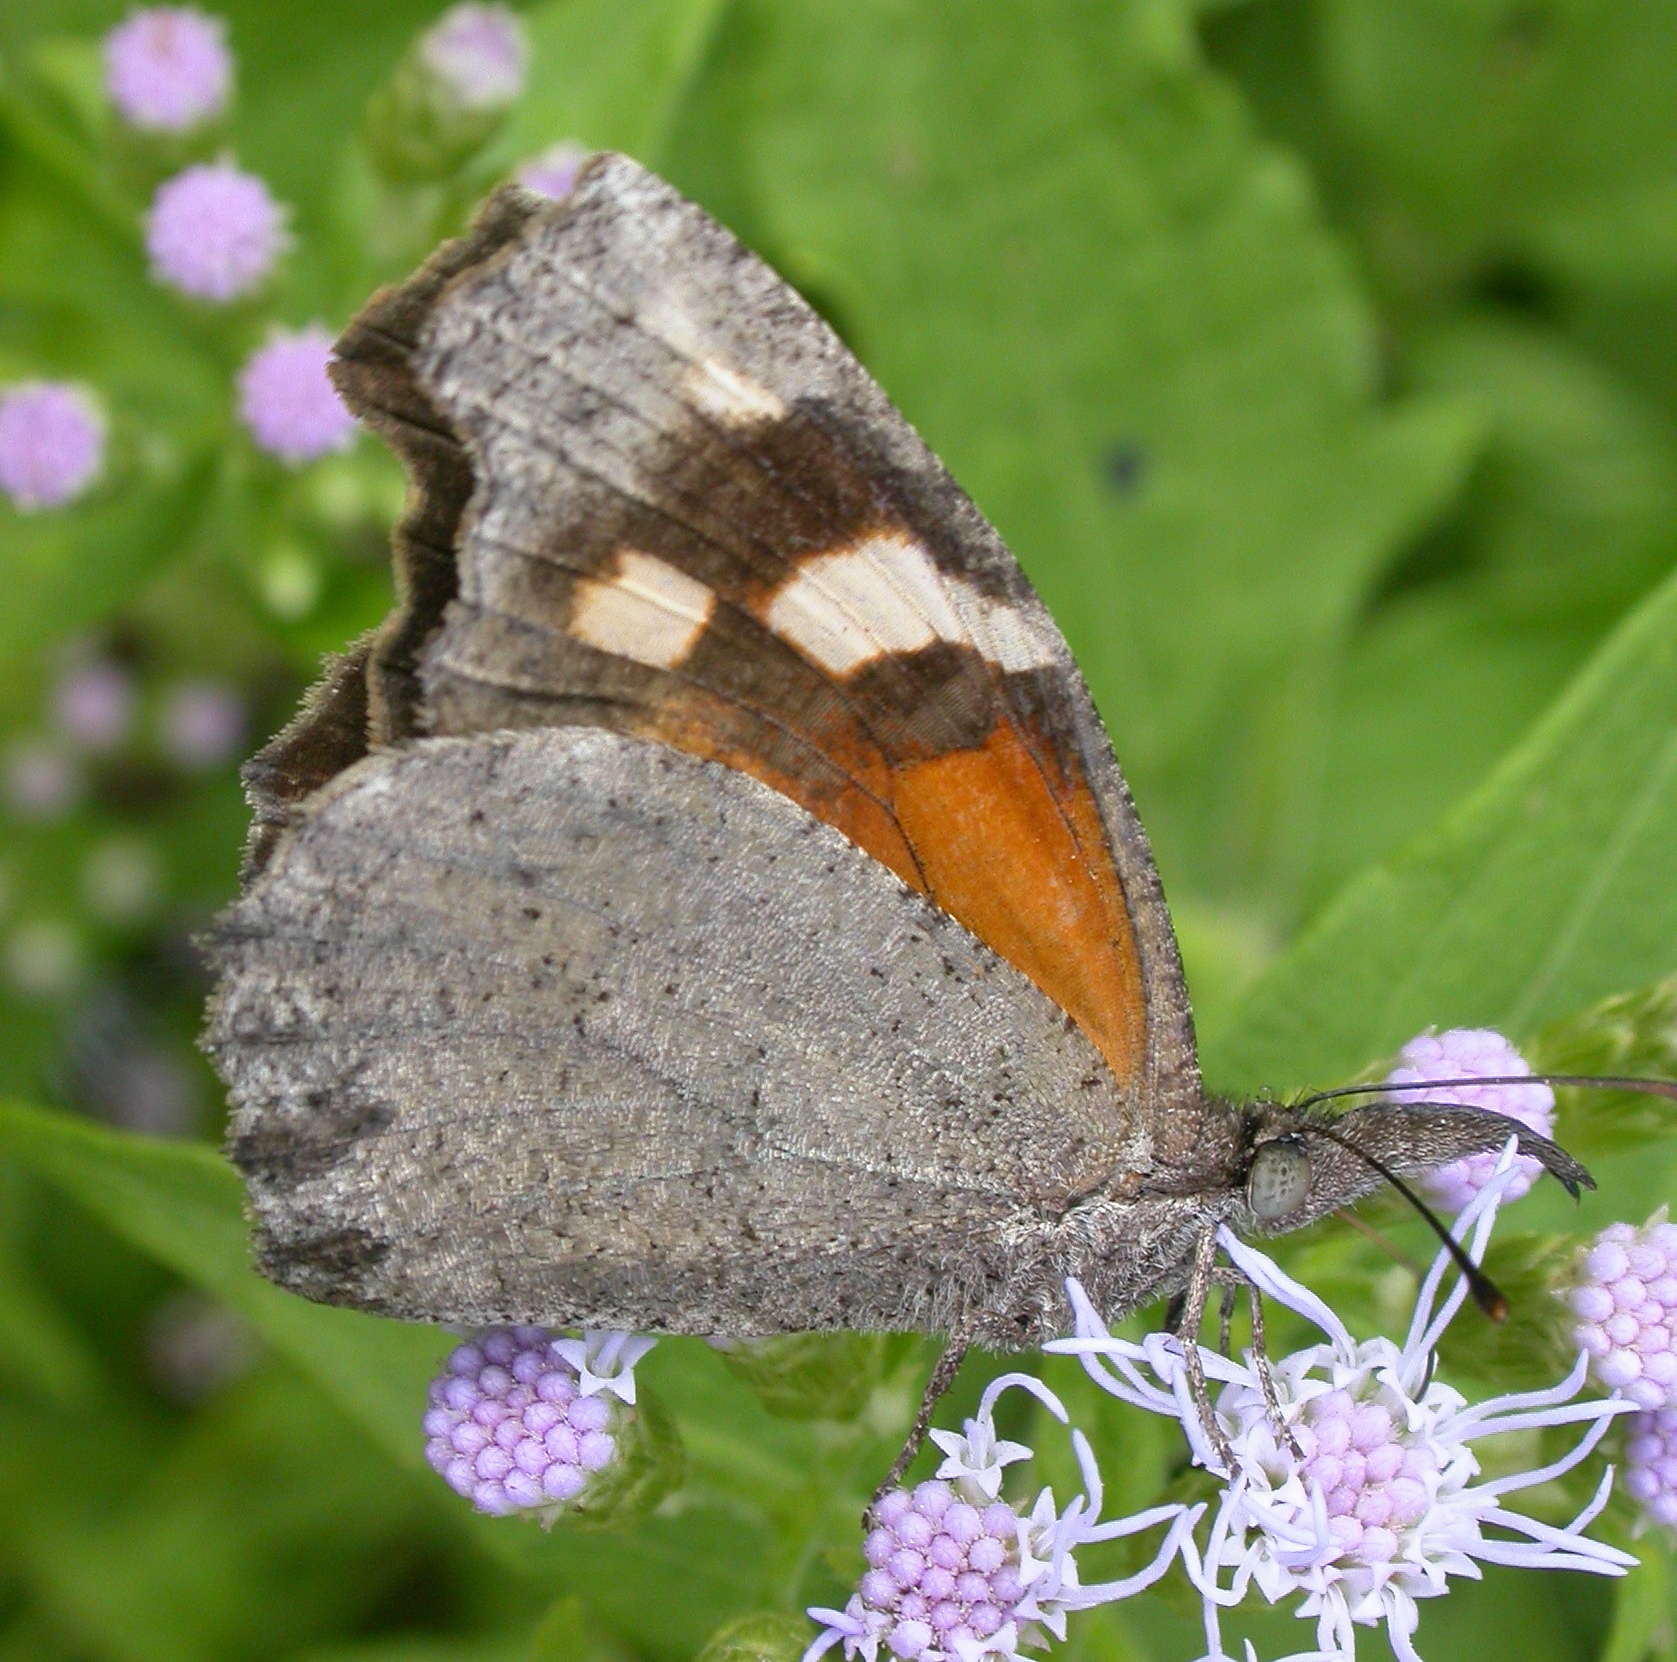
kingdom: Animalia
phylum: Arthropoda
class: Insecta
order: Lepidoptera
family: Nymphalidae
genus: Libytheana
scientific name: Libytheana carinenta
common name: American snout
